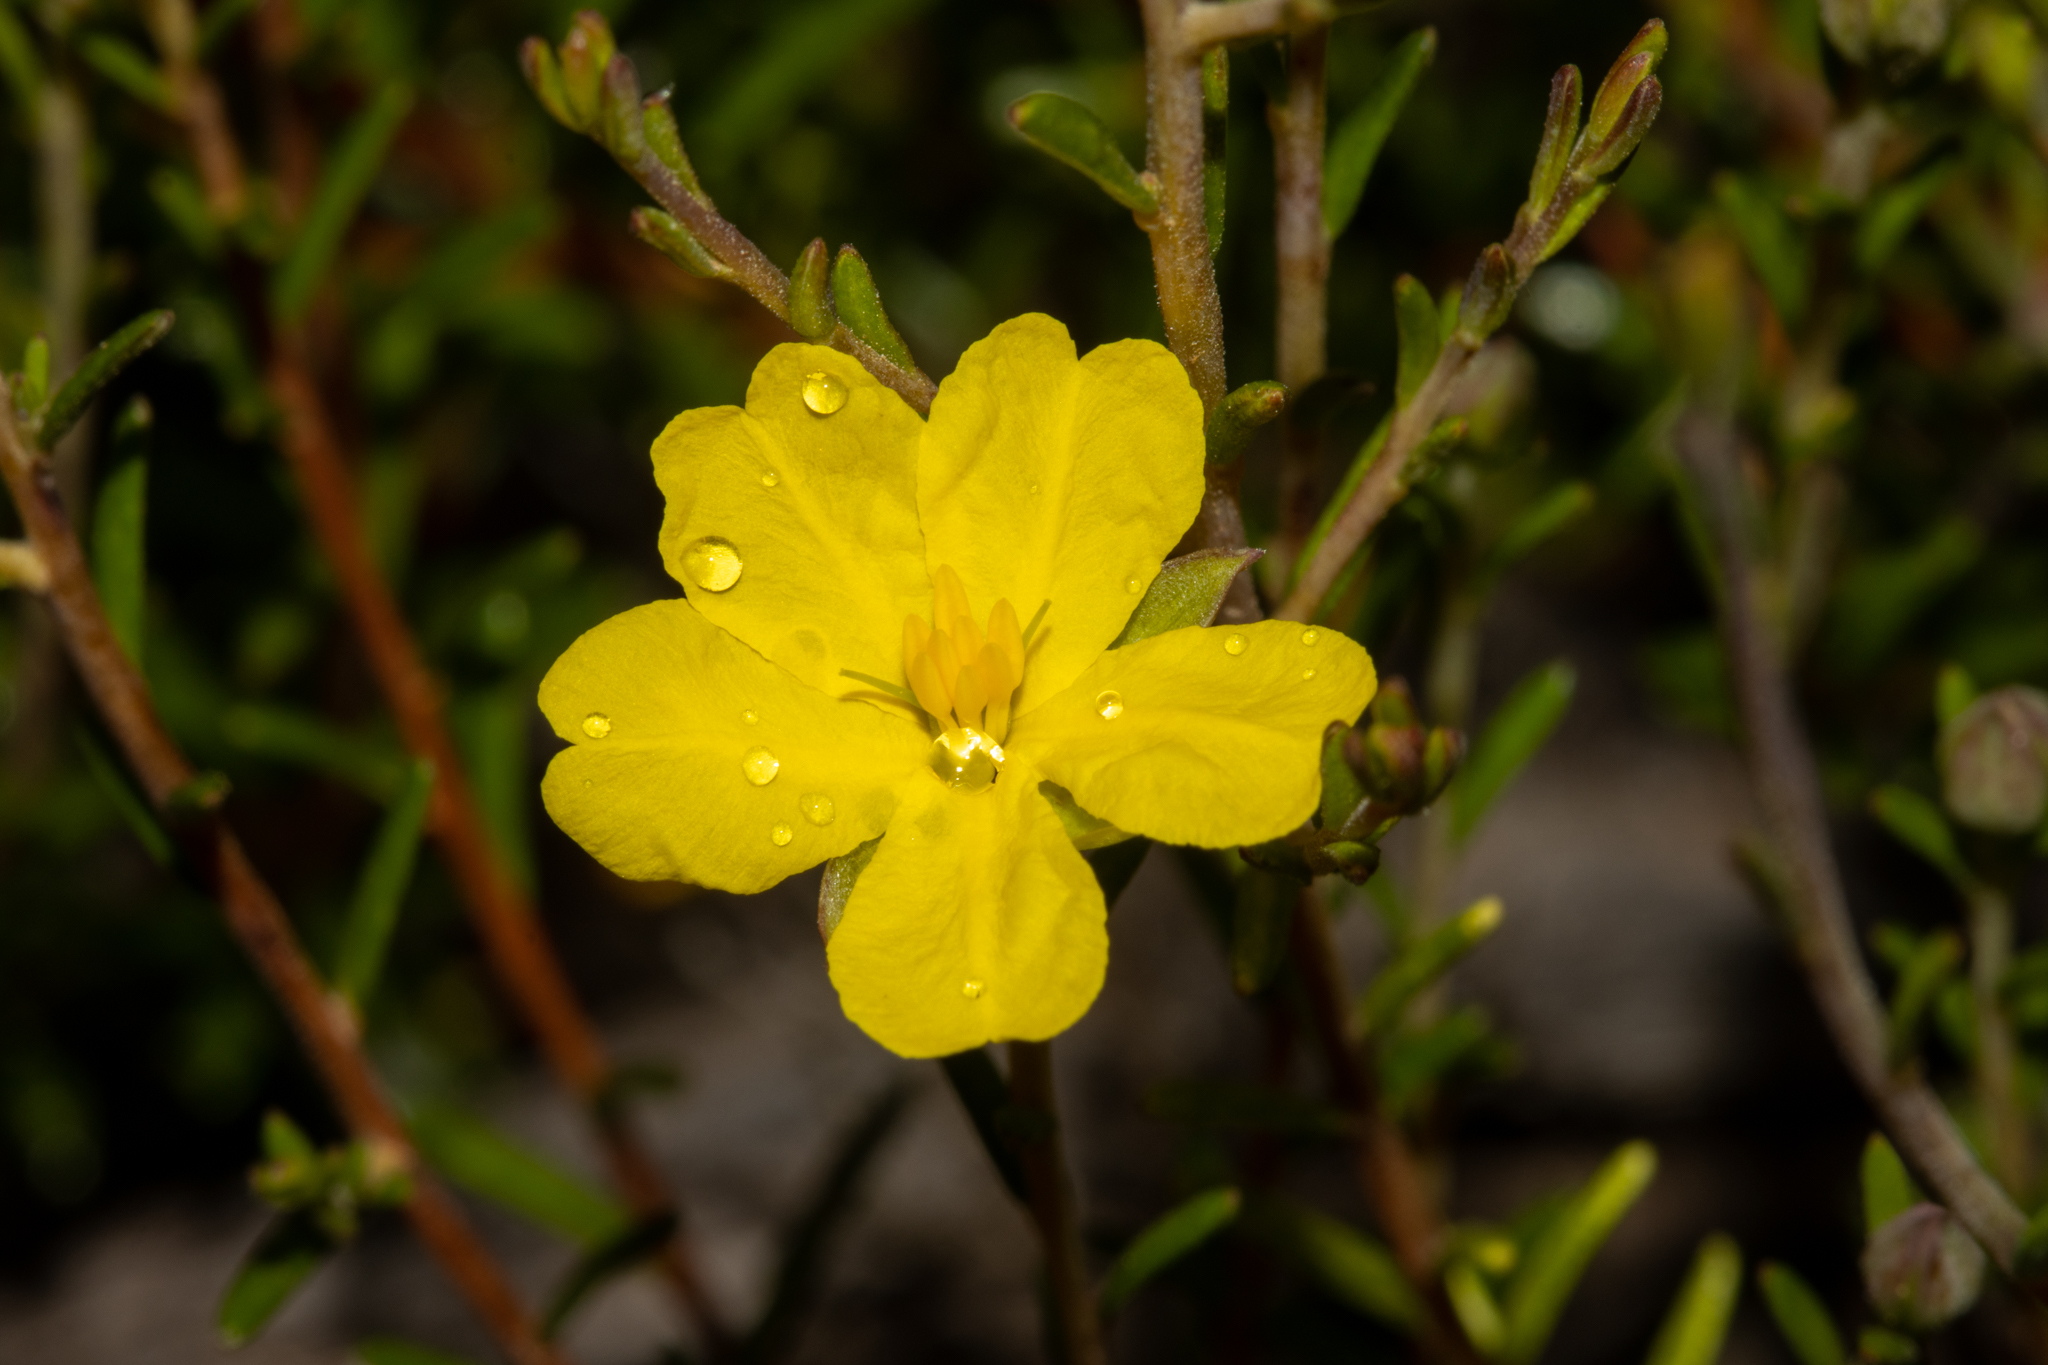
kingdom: Plantae
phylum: Tracheophyta
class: Magnoliopsida
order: Dilleniales
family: Dilleniaceae
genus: Hibbertia
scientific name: Hibbertia devitata
